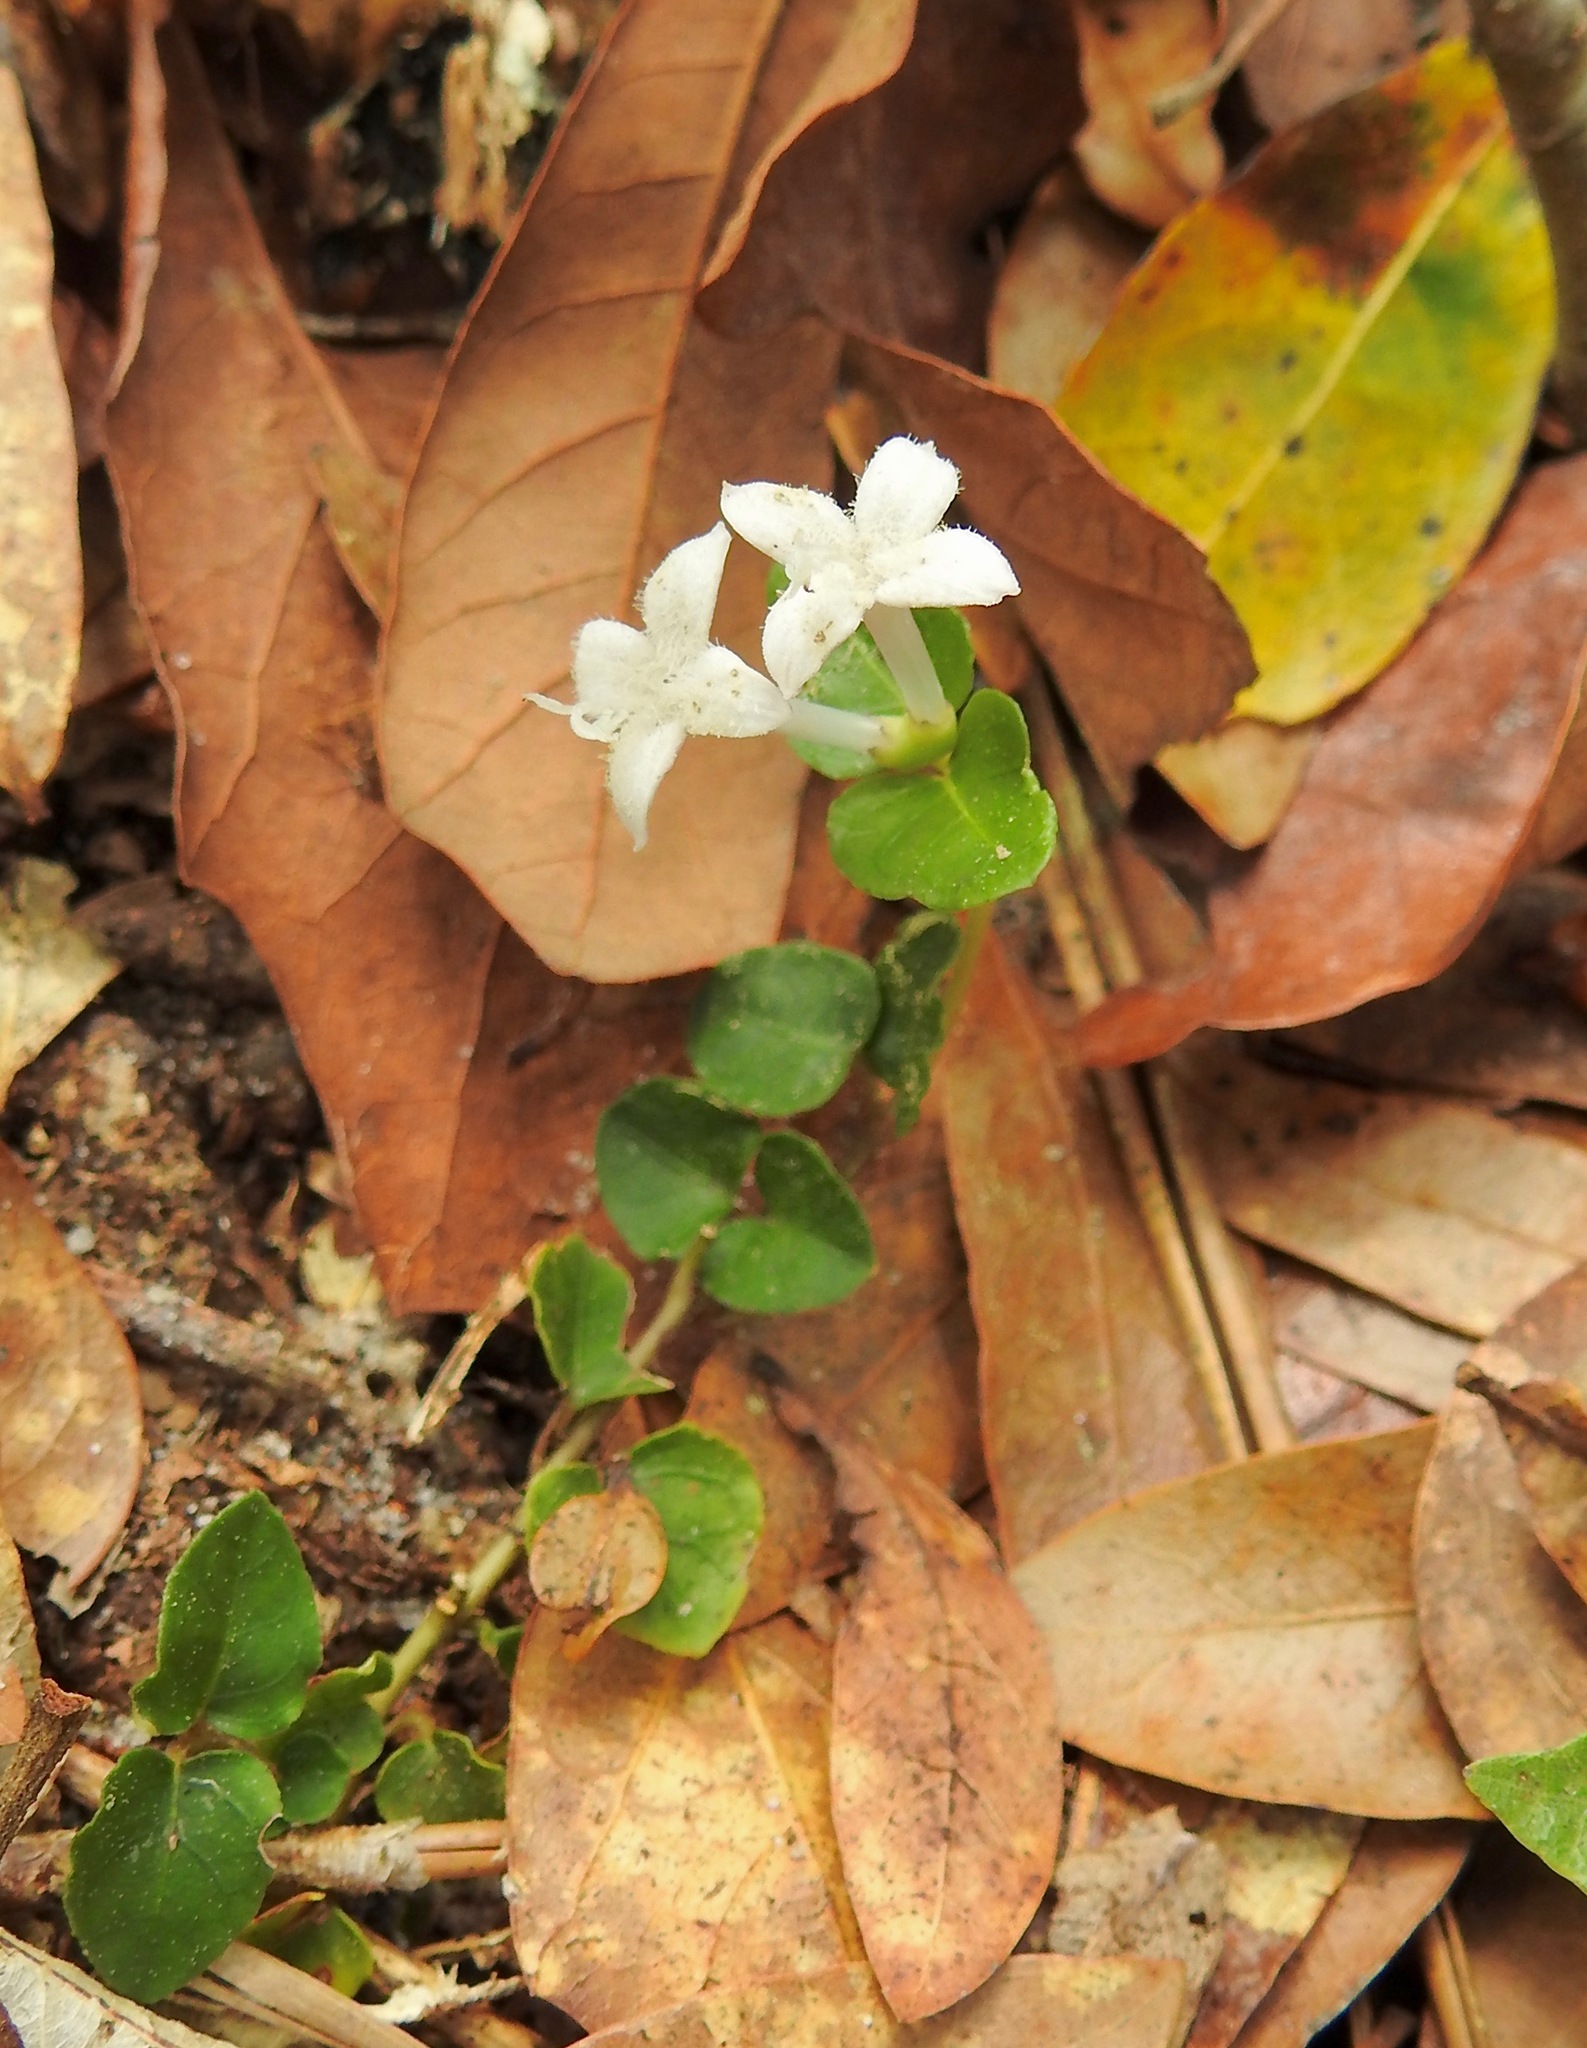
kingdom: Plantae
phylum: Tracheophyta
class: Magnoliopsida
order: Gentianales
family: Rubiaceae
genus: Mitchella
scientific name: Mitchella repens
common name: Partridge-berry
